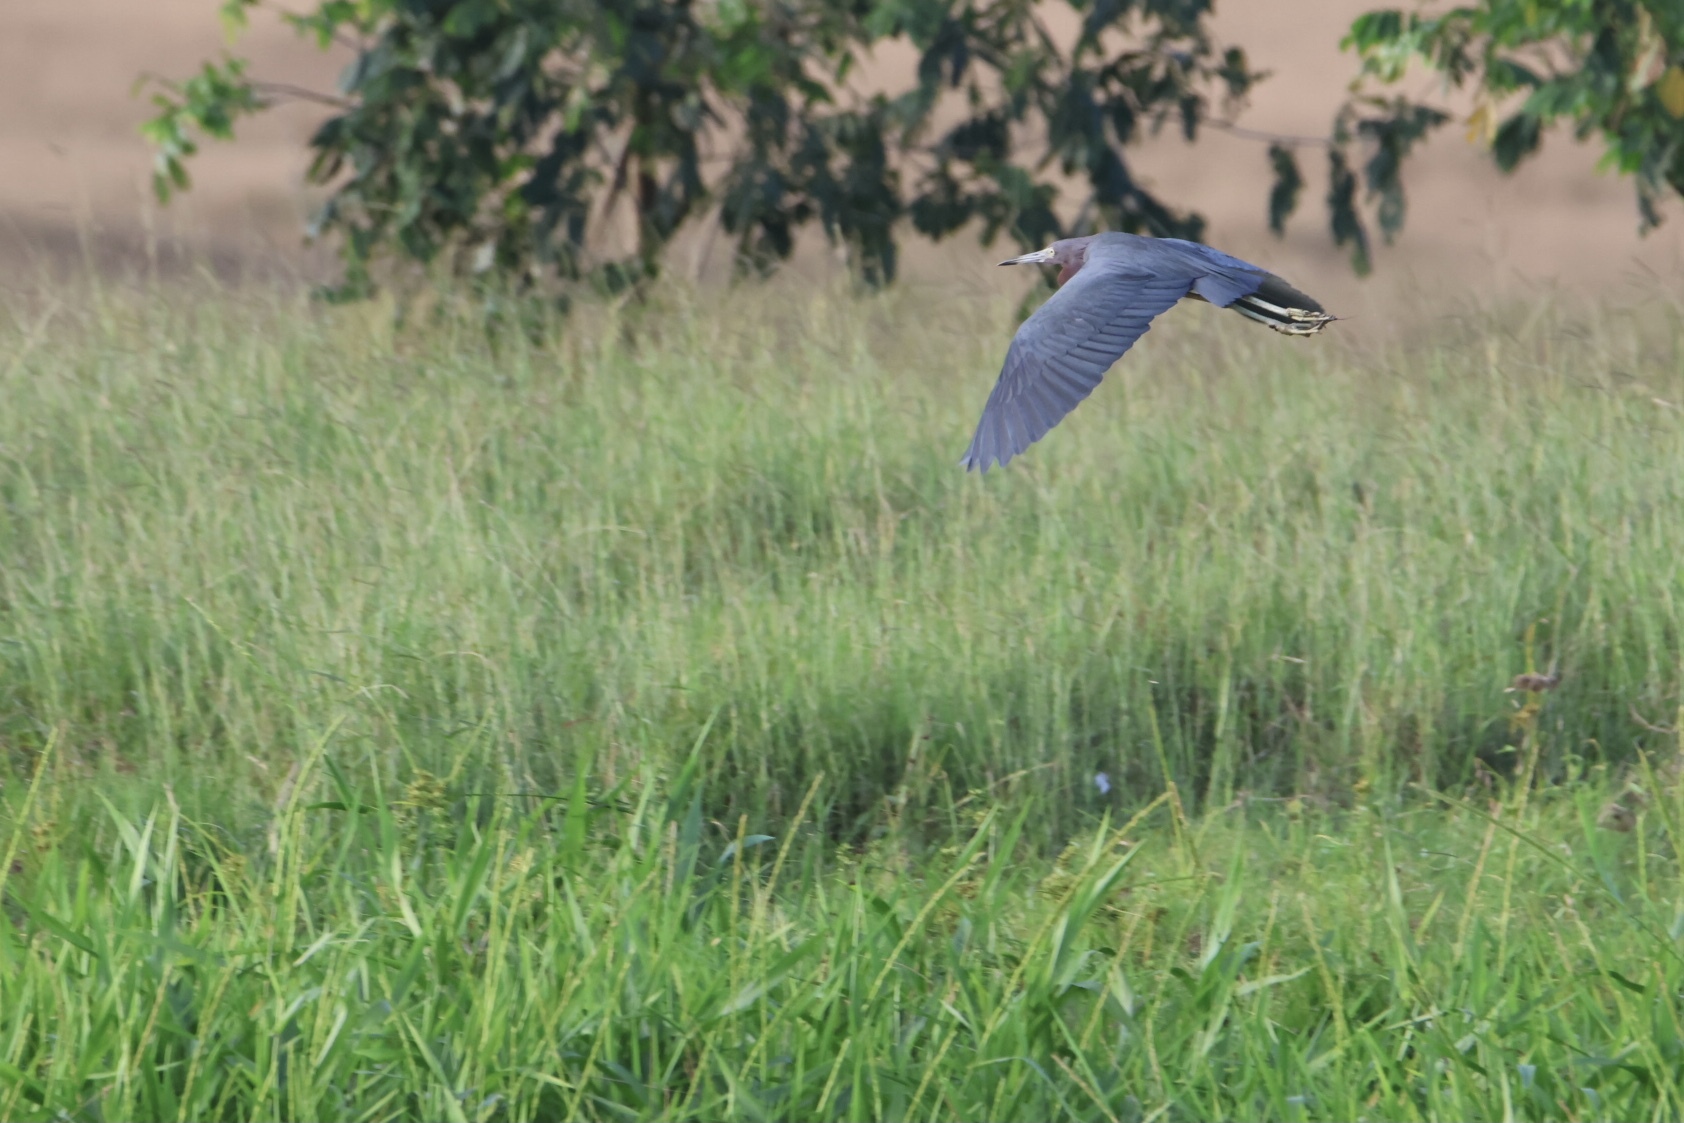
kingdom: Animalia
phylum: Chordata
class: Aves
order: Pelecaniformes
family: Ardeidae
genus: Egretta
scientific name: Egretta caerulea
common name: Little blue heron
